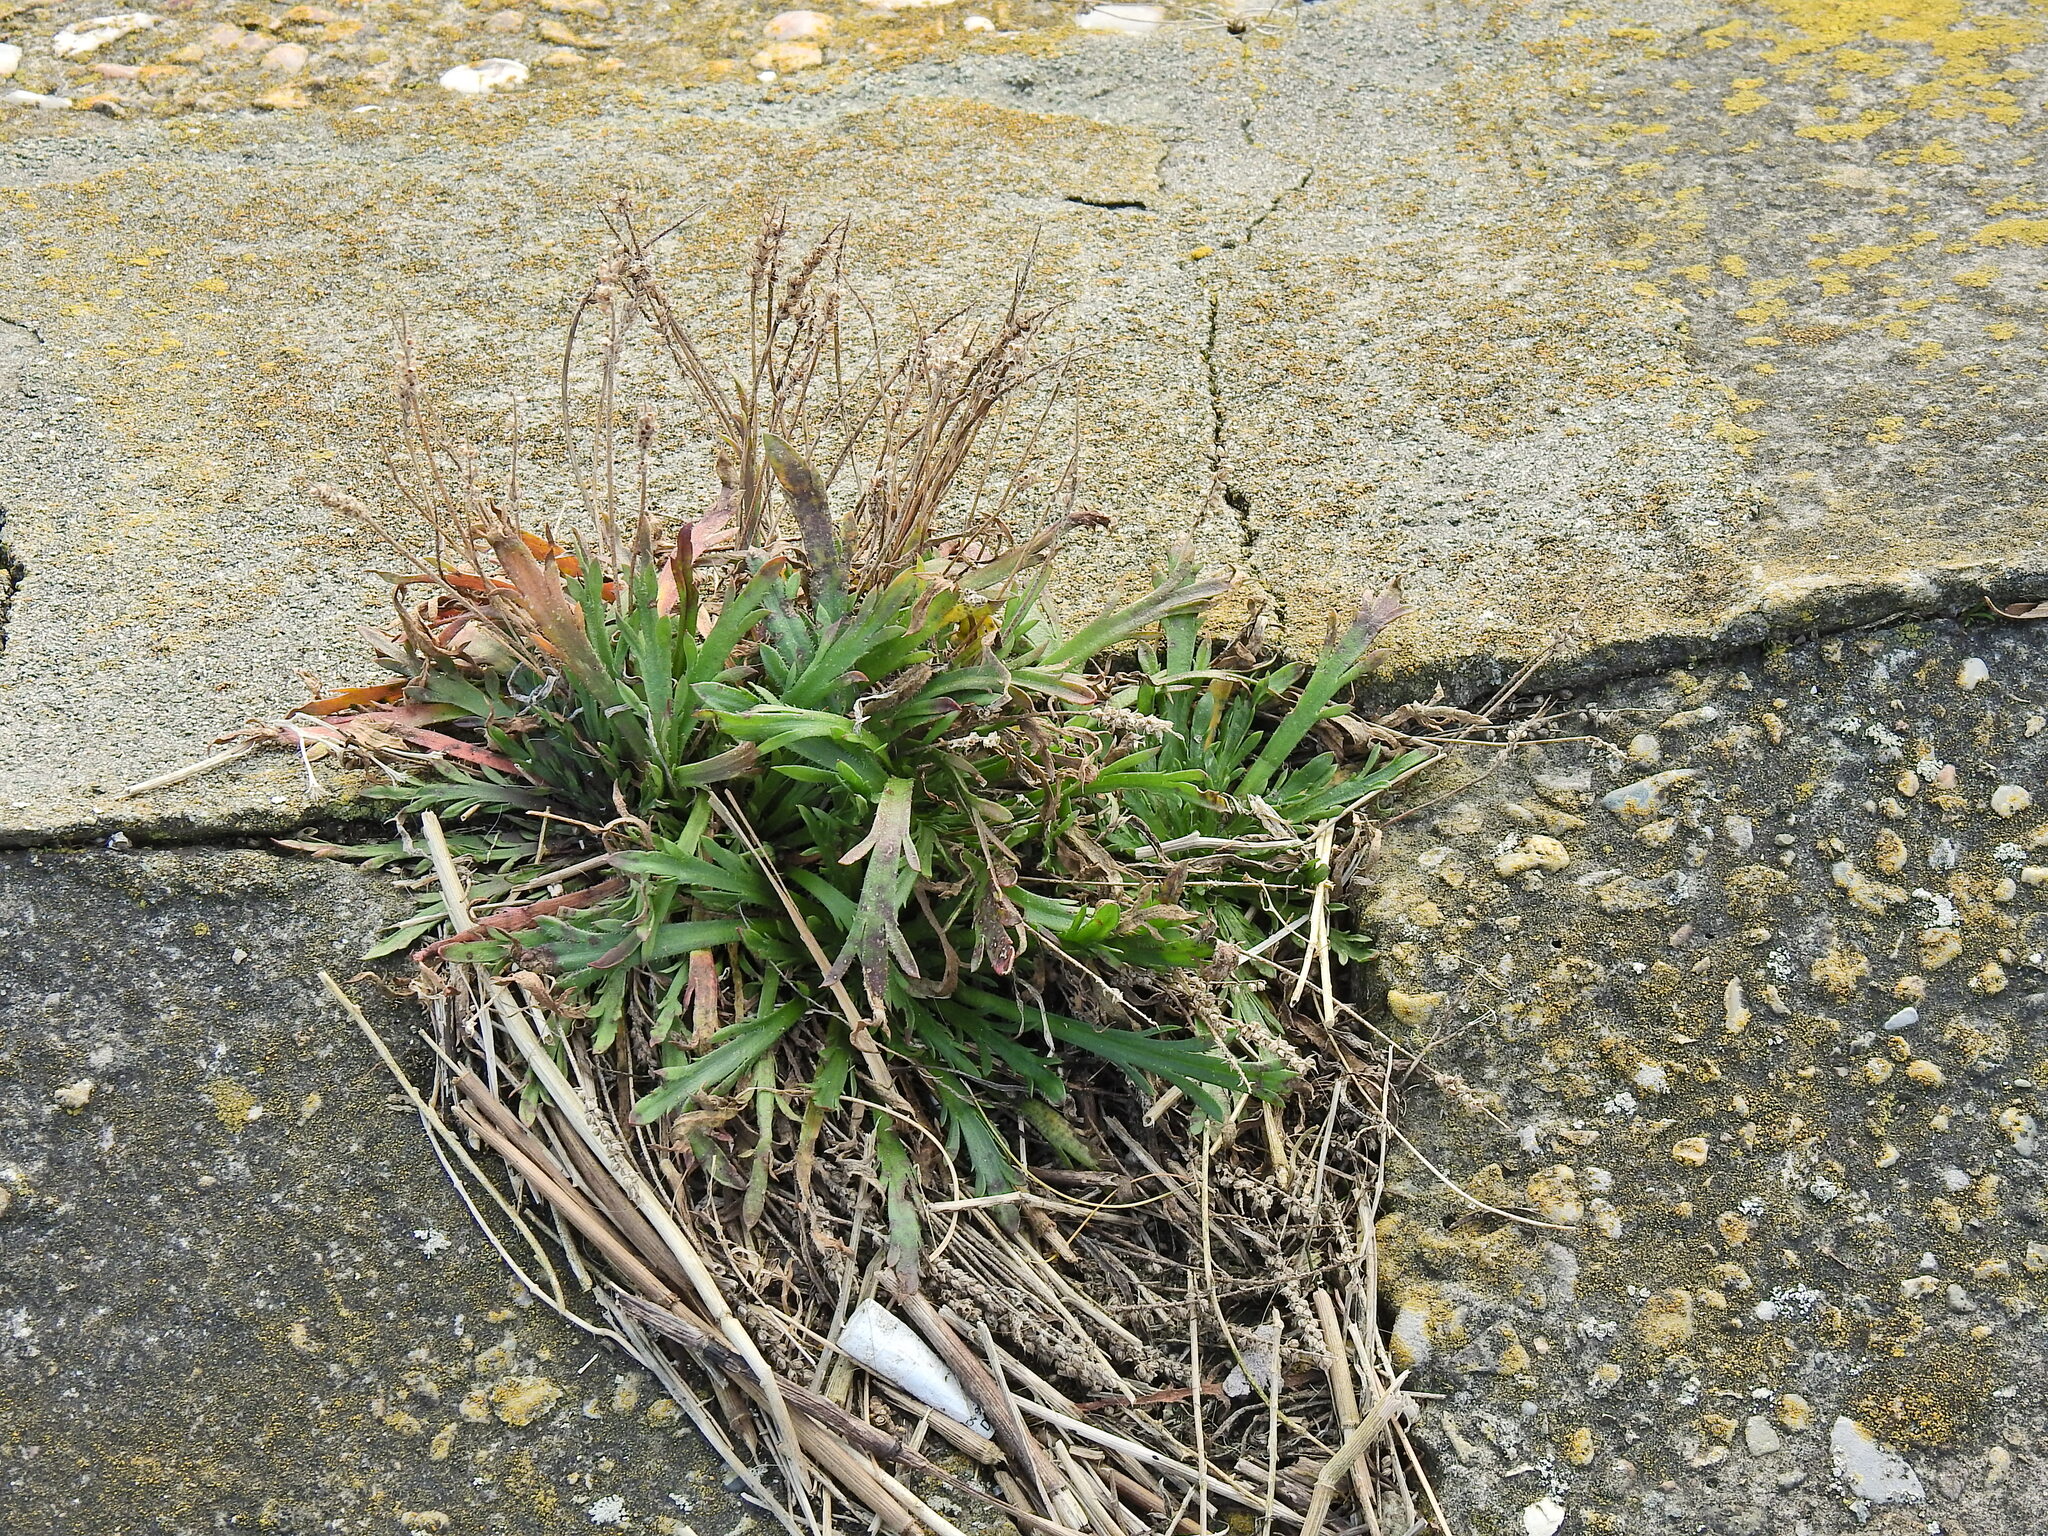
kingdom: Plantae
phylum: Tracheophyta
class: Magnoliopsida
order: Lamiales
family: Plantaginaceae
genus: Plantago
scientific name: Plantago coronopus
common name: Buck's-horn plantain
